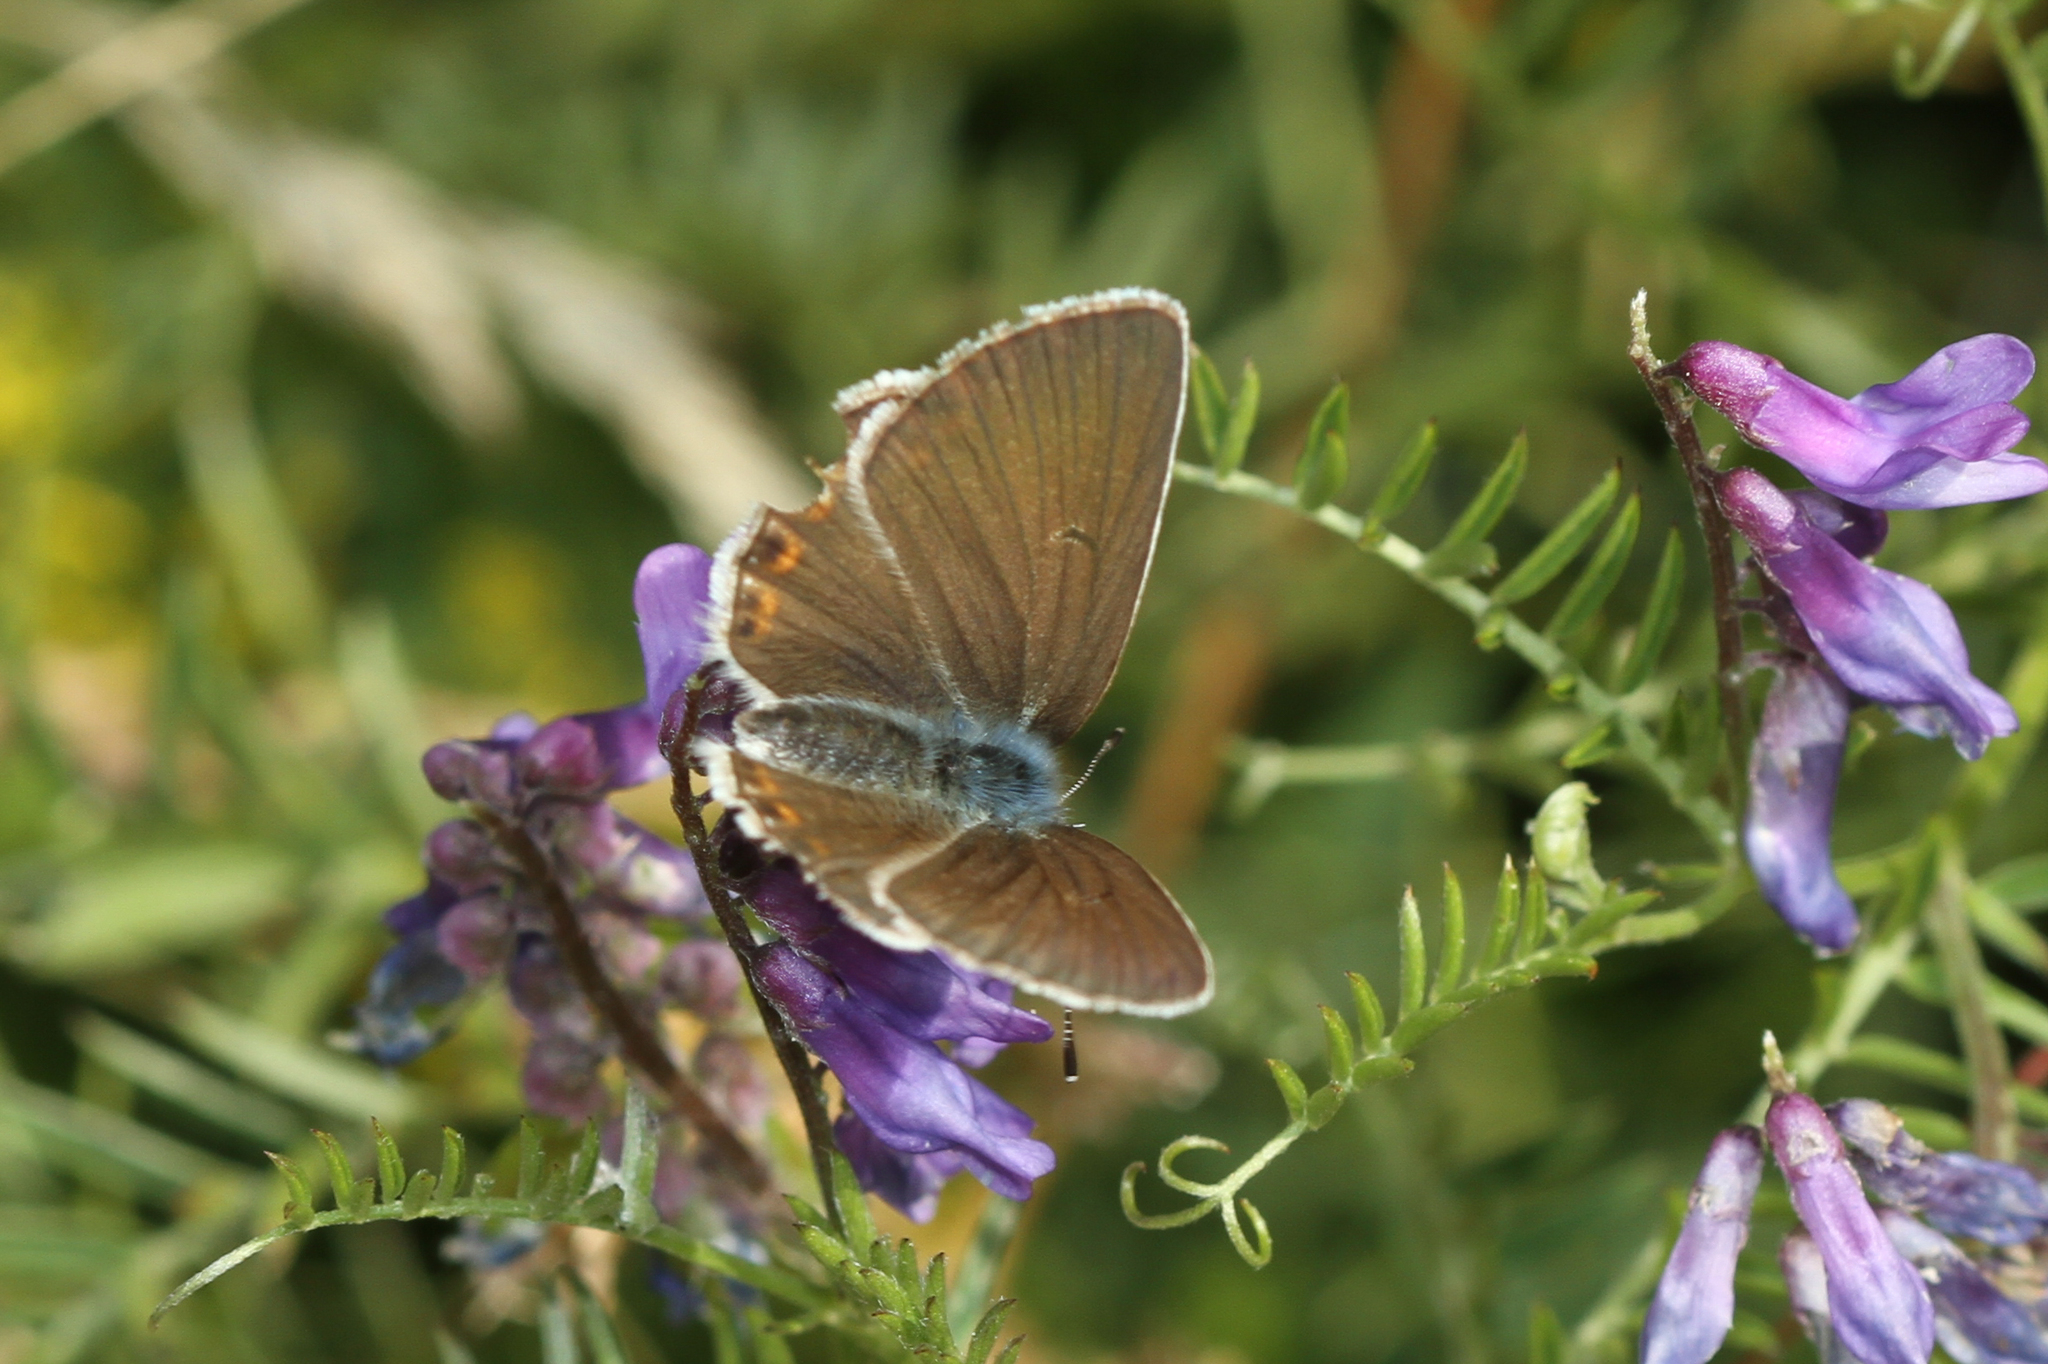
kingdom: Animalia
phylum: Arthropoda
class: Insecta
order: Lepidoptera
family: Lycaenidae
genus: Plebejus
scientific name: Plebejus amanda
